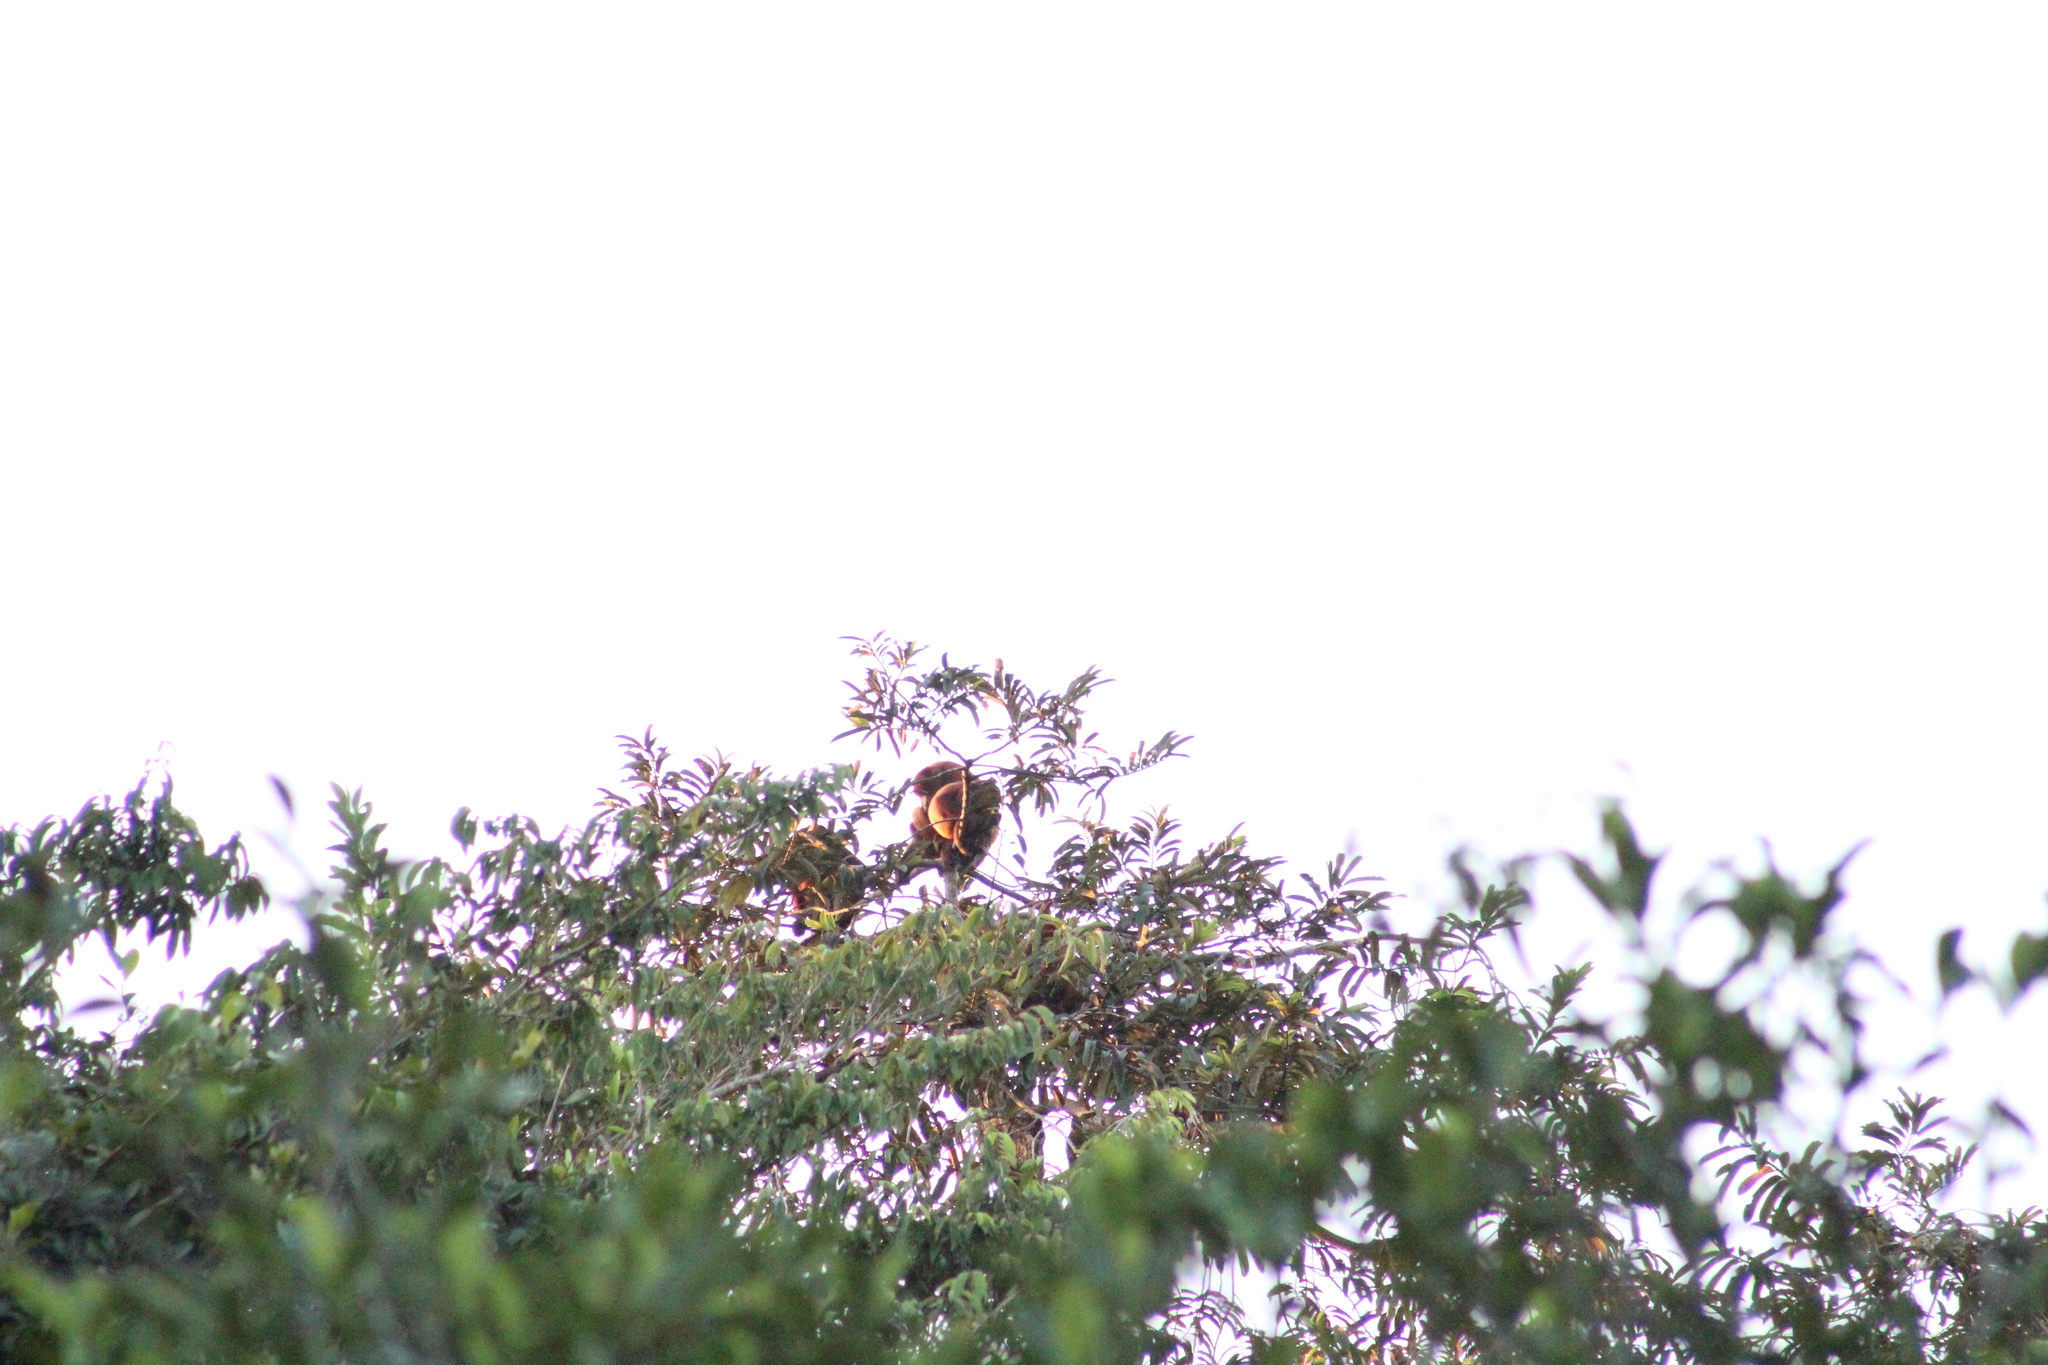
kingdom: Animalia
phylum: Chordata
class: Mammalia
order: Primates
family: Atelidae
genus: Alouatta
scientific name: Alouatta seniculus
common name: Venezuelan red howler
